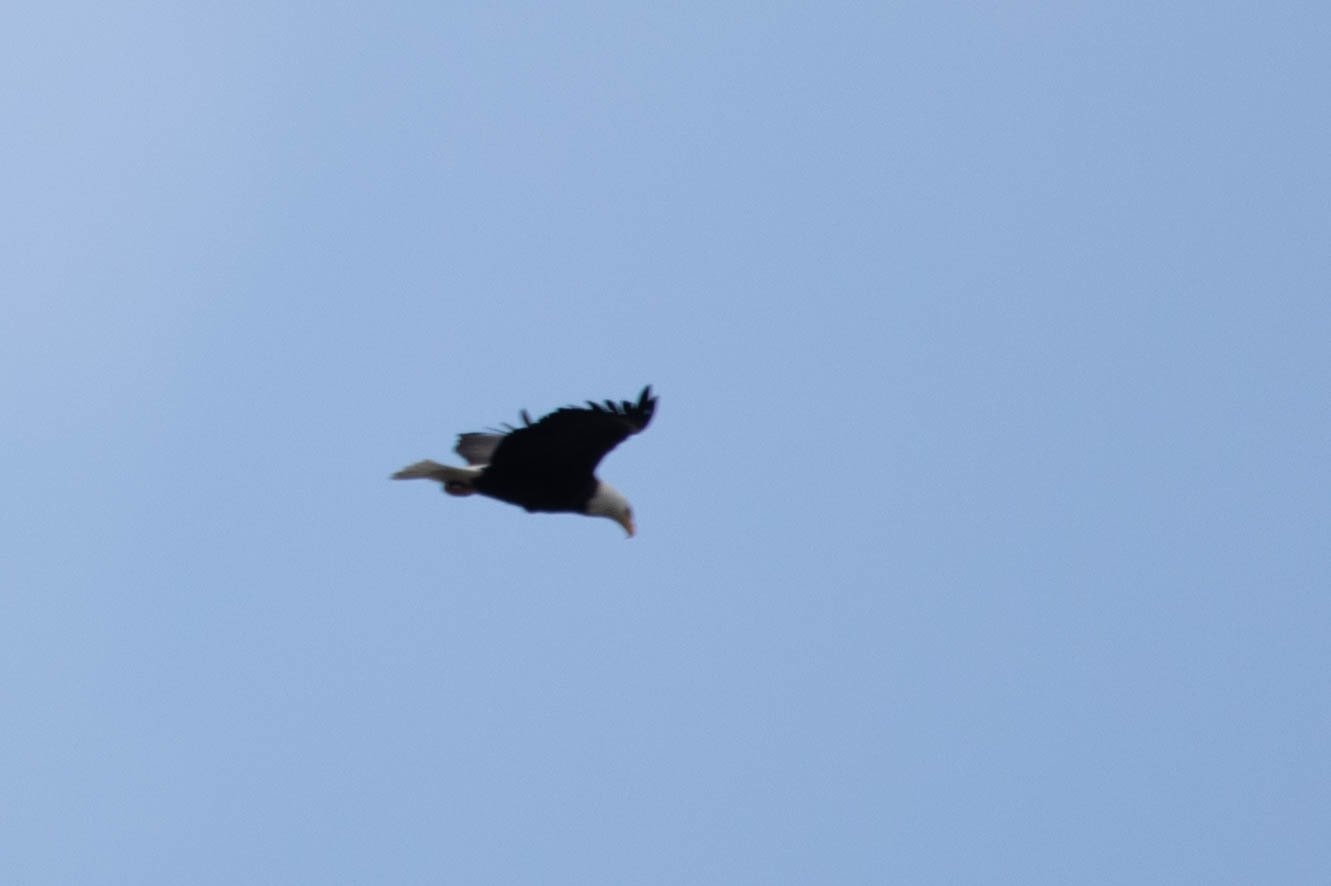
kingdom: Animalia
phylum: Chordata
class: Aves
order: Accipitriformes
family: Accipitridae
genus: Haliaeetus
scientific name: Haliaeetus leucocephalus
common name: Bald eagle
